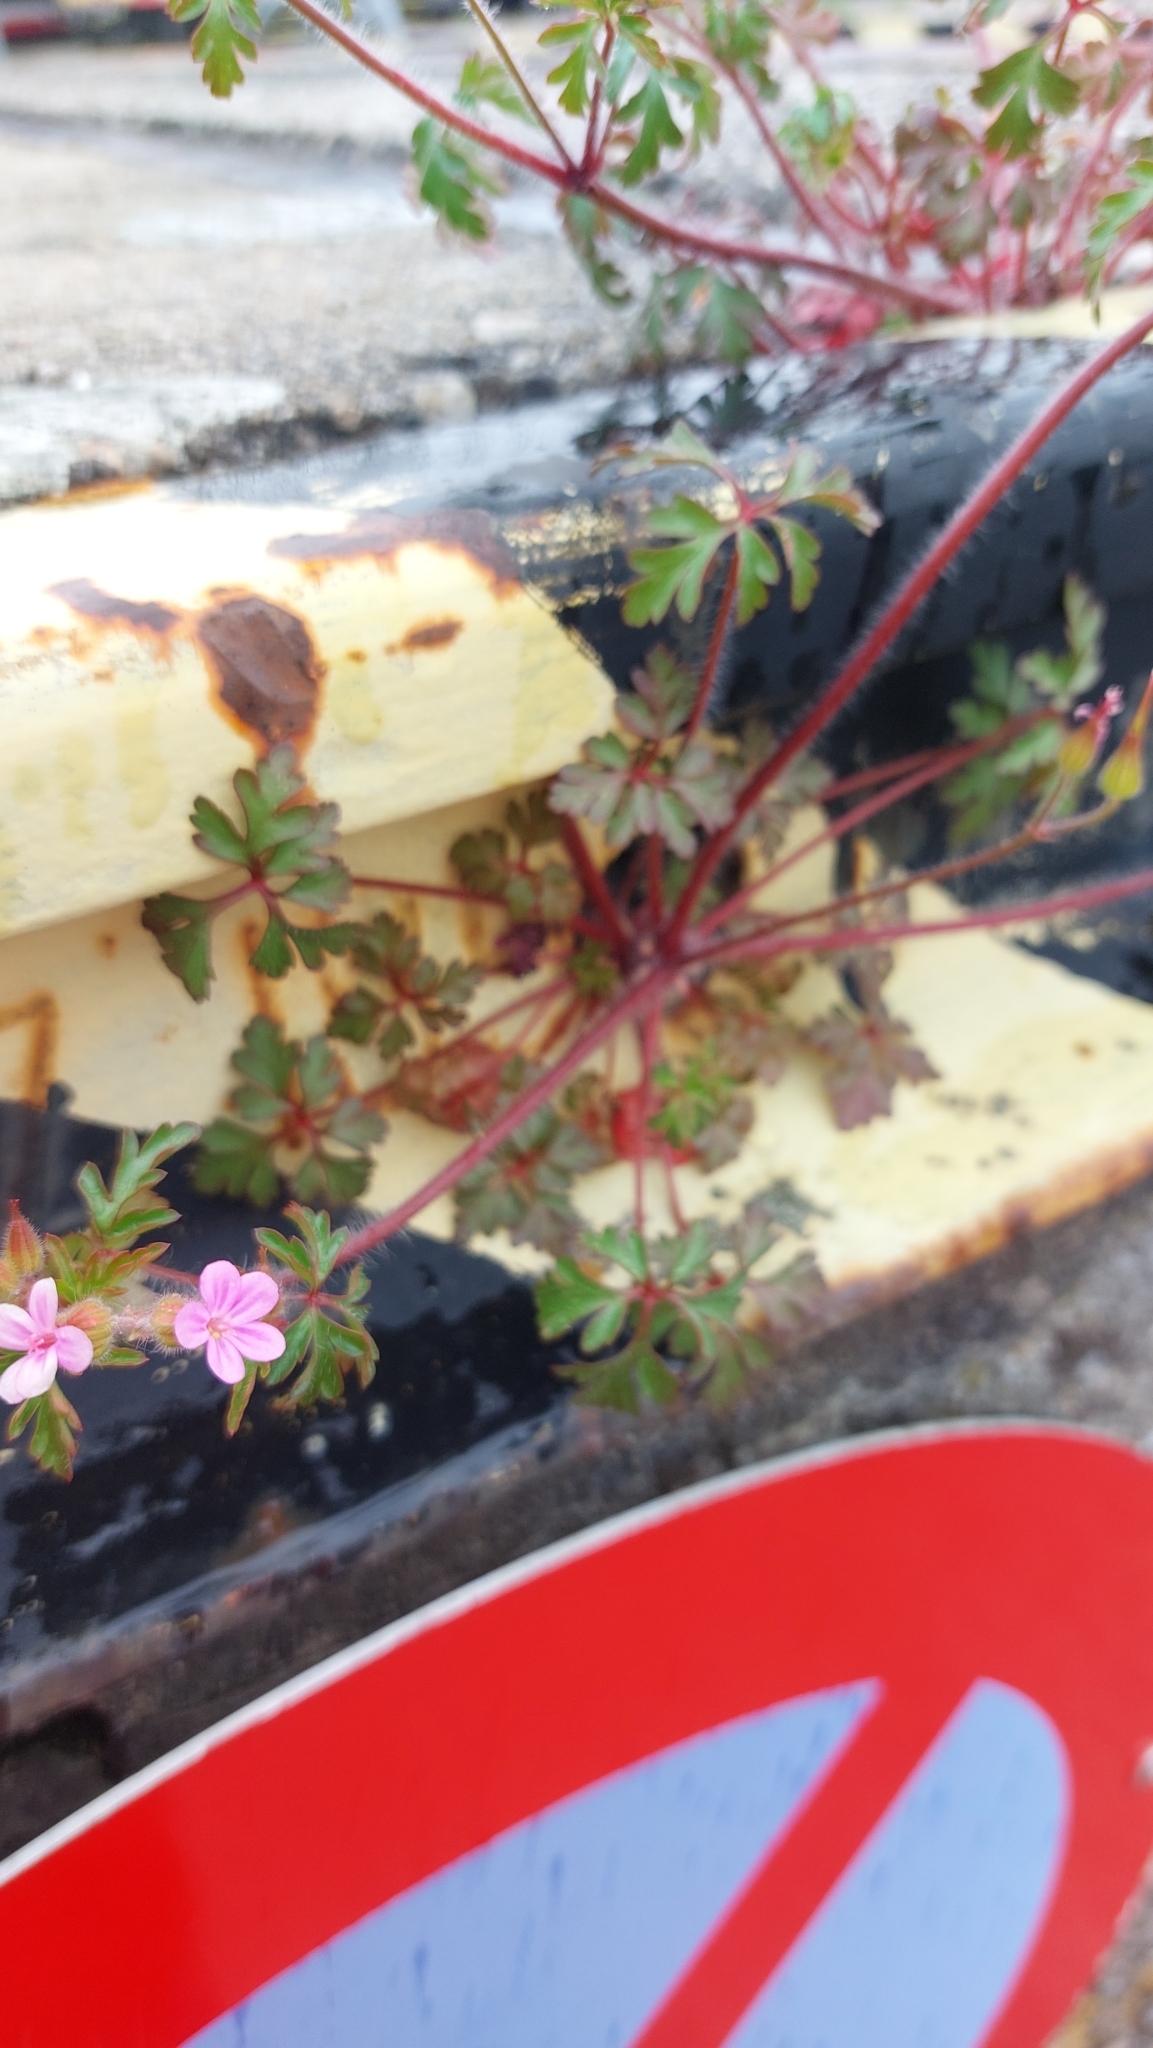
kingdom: Plantae
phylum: Tracheophyta
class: Magnoliopsida
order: Geraniales
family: Geraniaceae
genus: Geranium
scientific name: Geranium robertianum
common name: Herb-robert
